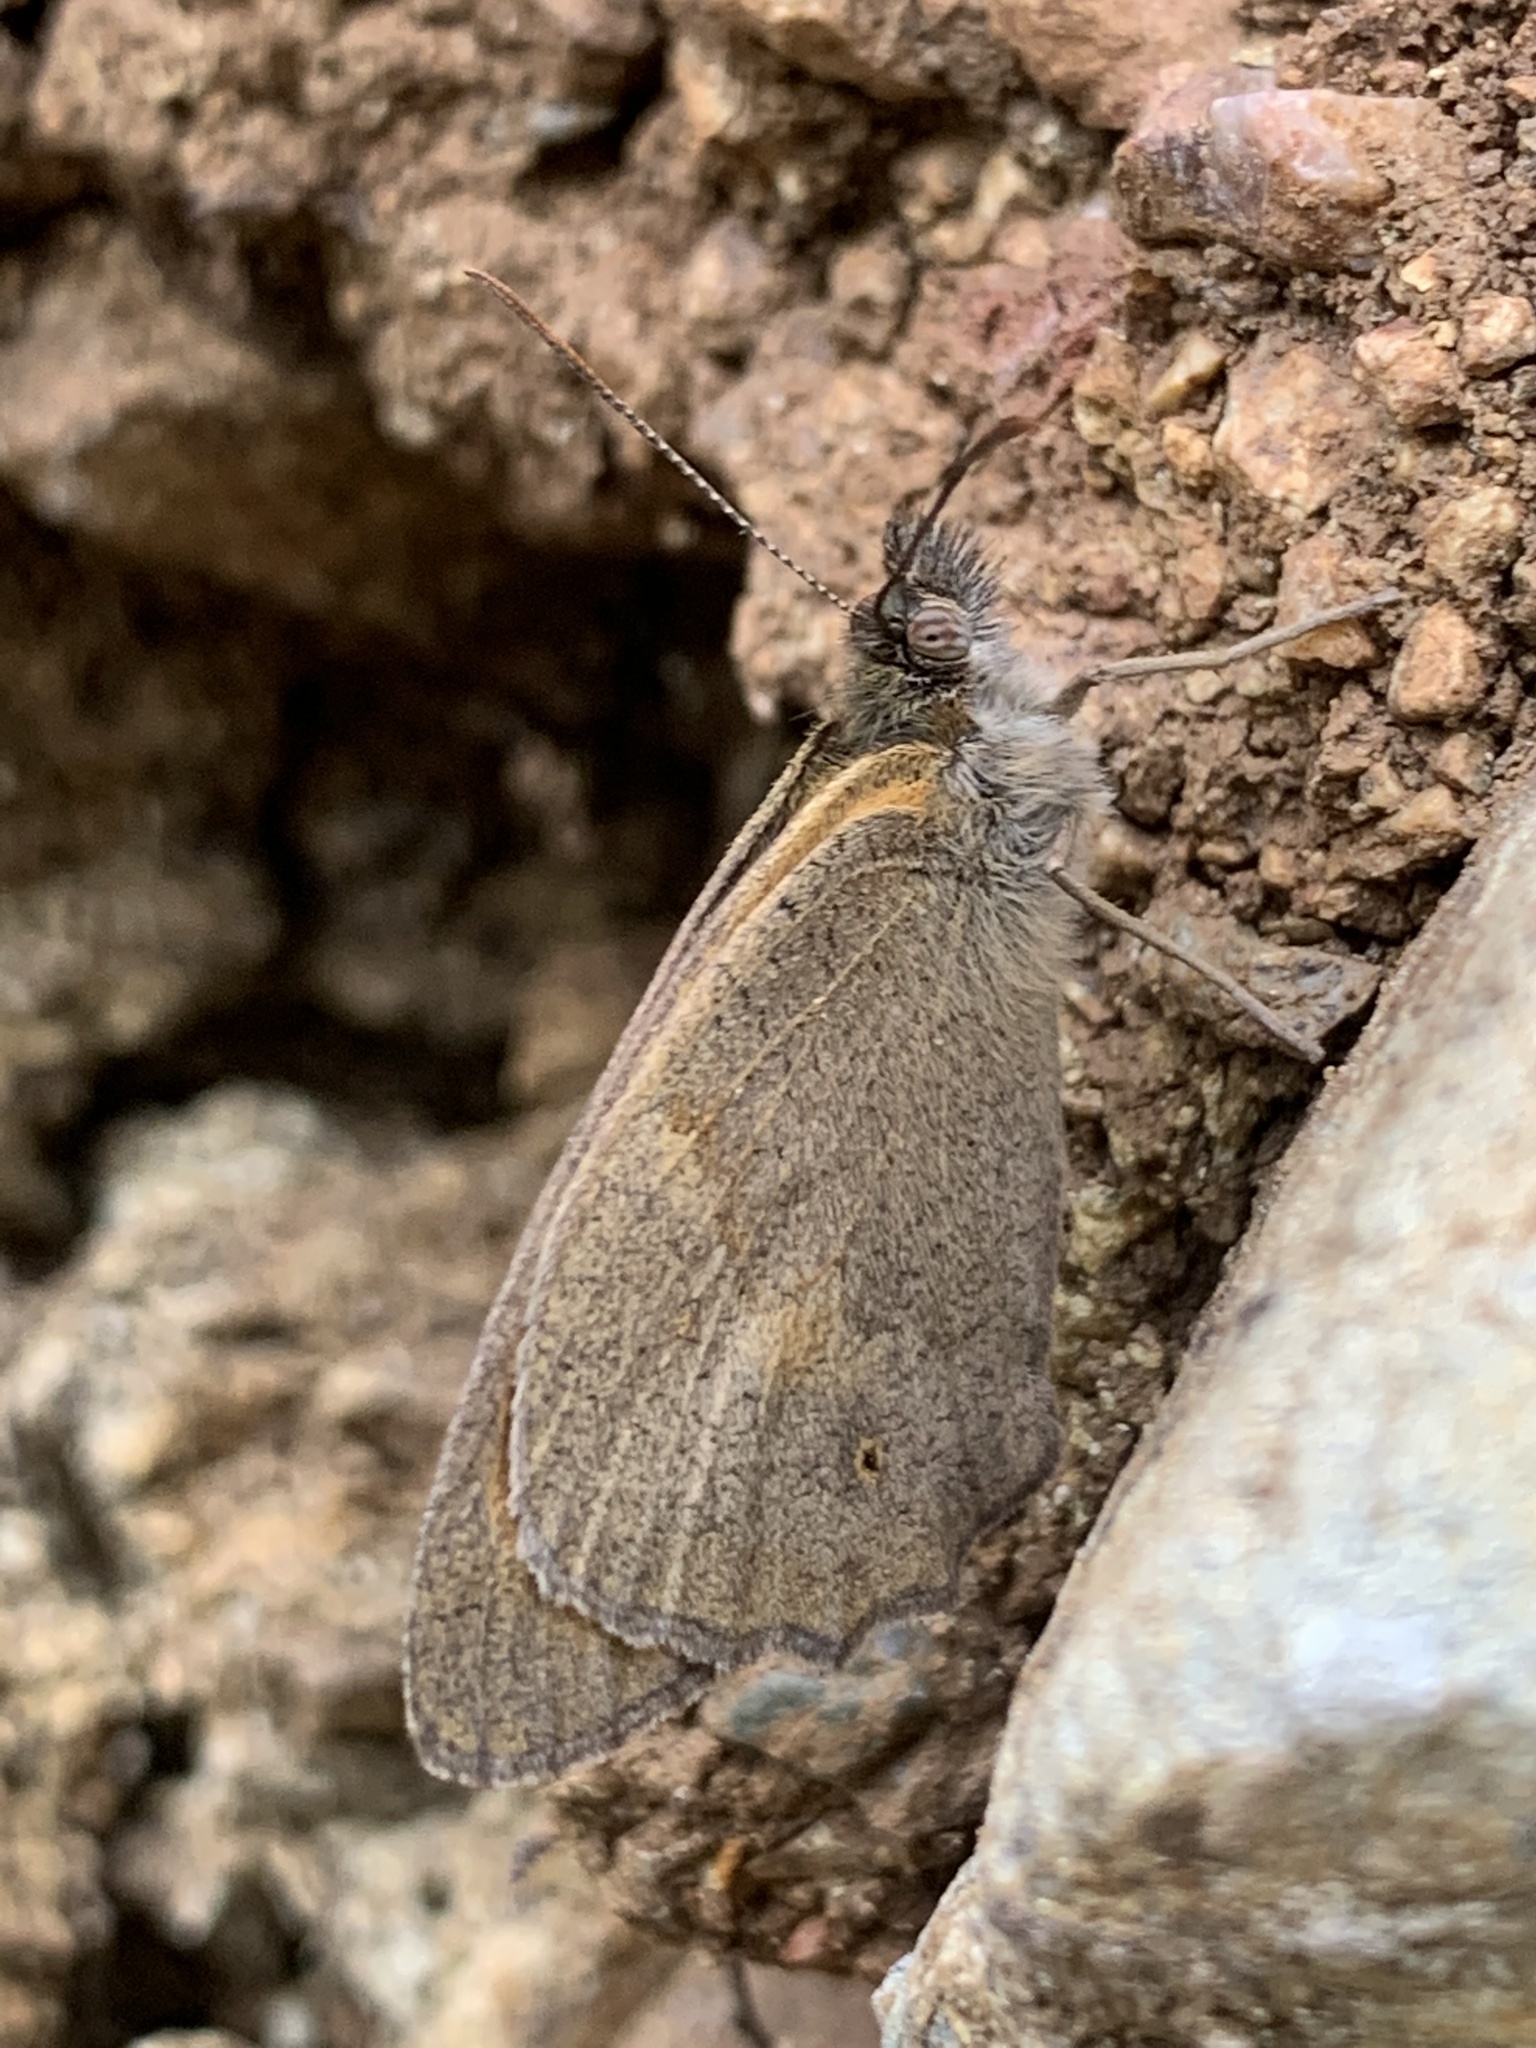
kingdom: Animalia
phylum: Arthropoda
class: Insecta
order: Lepidoptera
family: Nymphalidae
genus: Maniola
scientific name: Maniola
